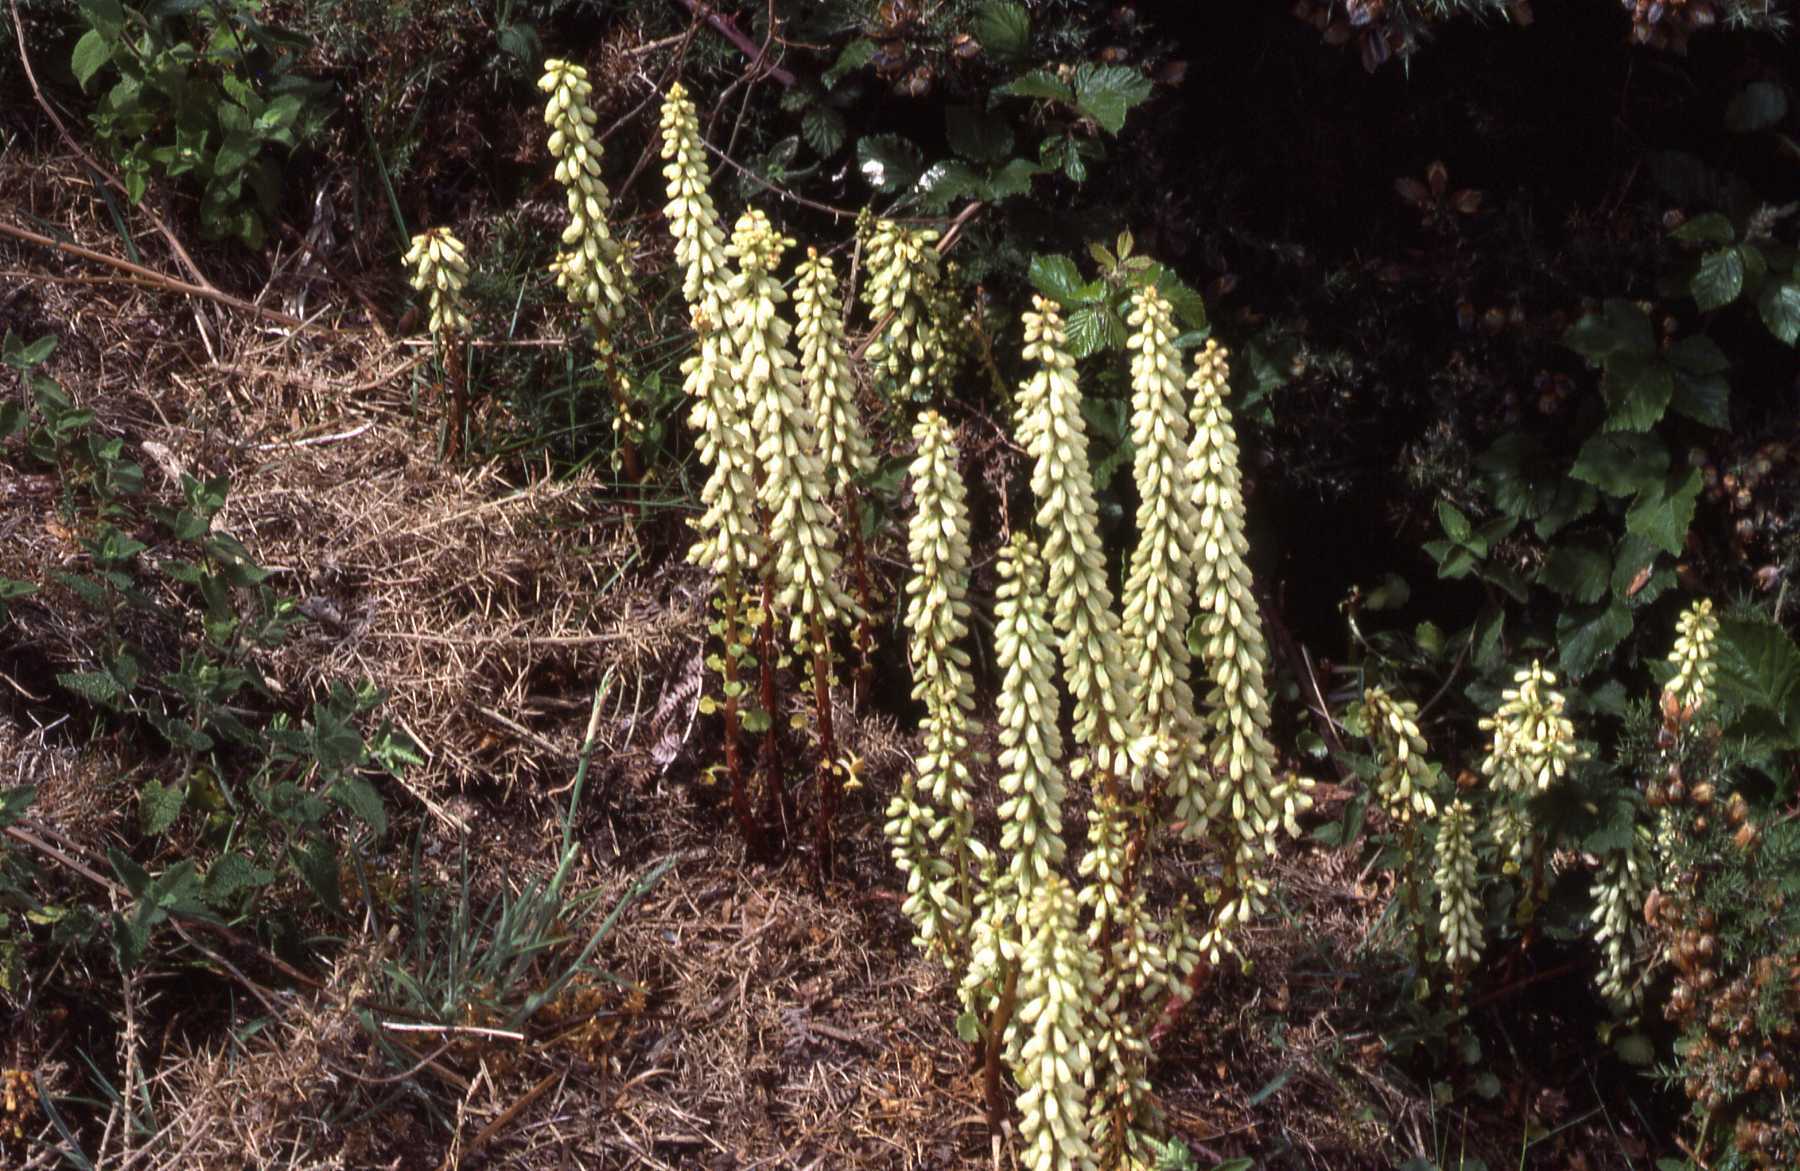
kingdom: Plantae
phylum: Tracheophyta
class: Magnoliopsida
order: Saxifragales
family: Crassulaceae
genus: Umbilicus
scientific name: Umbilicus rupestris
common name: Navelwort
